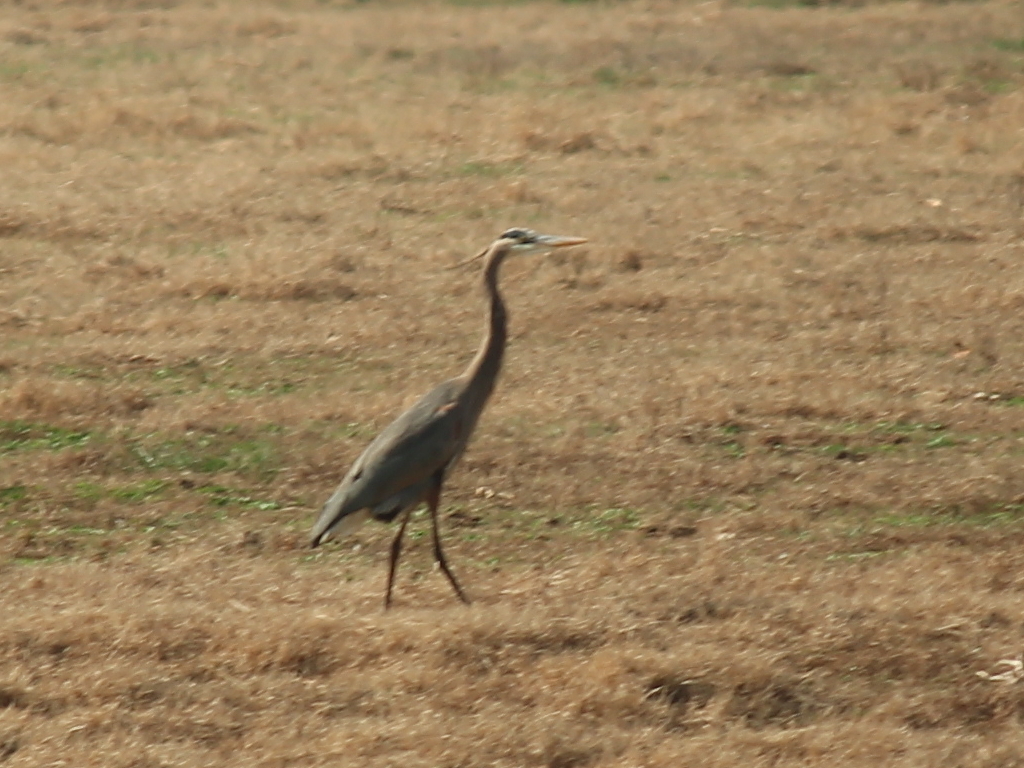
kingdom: Animalia
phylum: Chordata
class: Aves
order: Pelecaniformes
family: Ardeidae
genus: Ardea
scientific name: Ardea herodias
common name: Great blue heron
